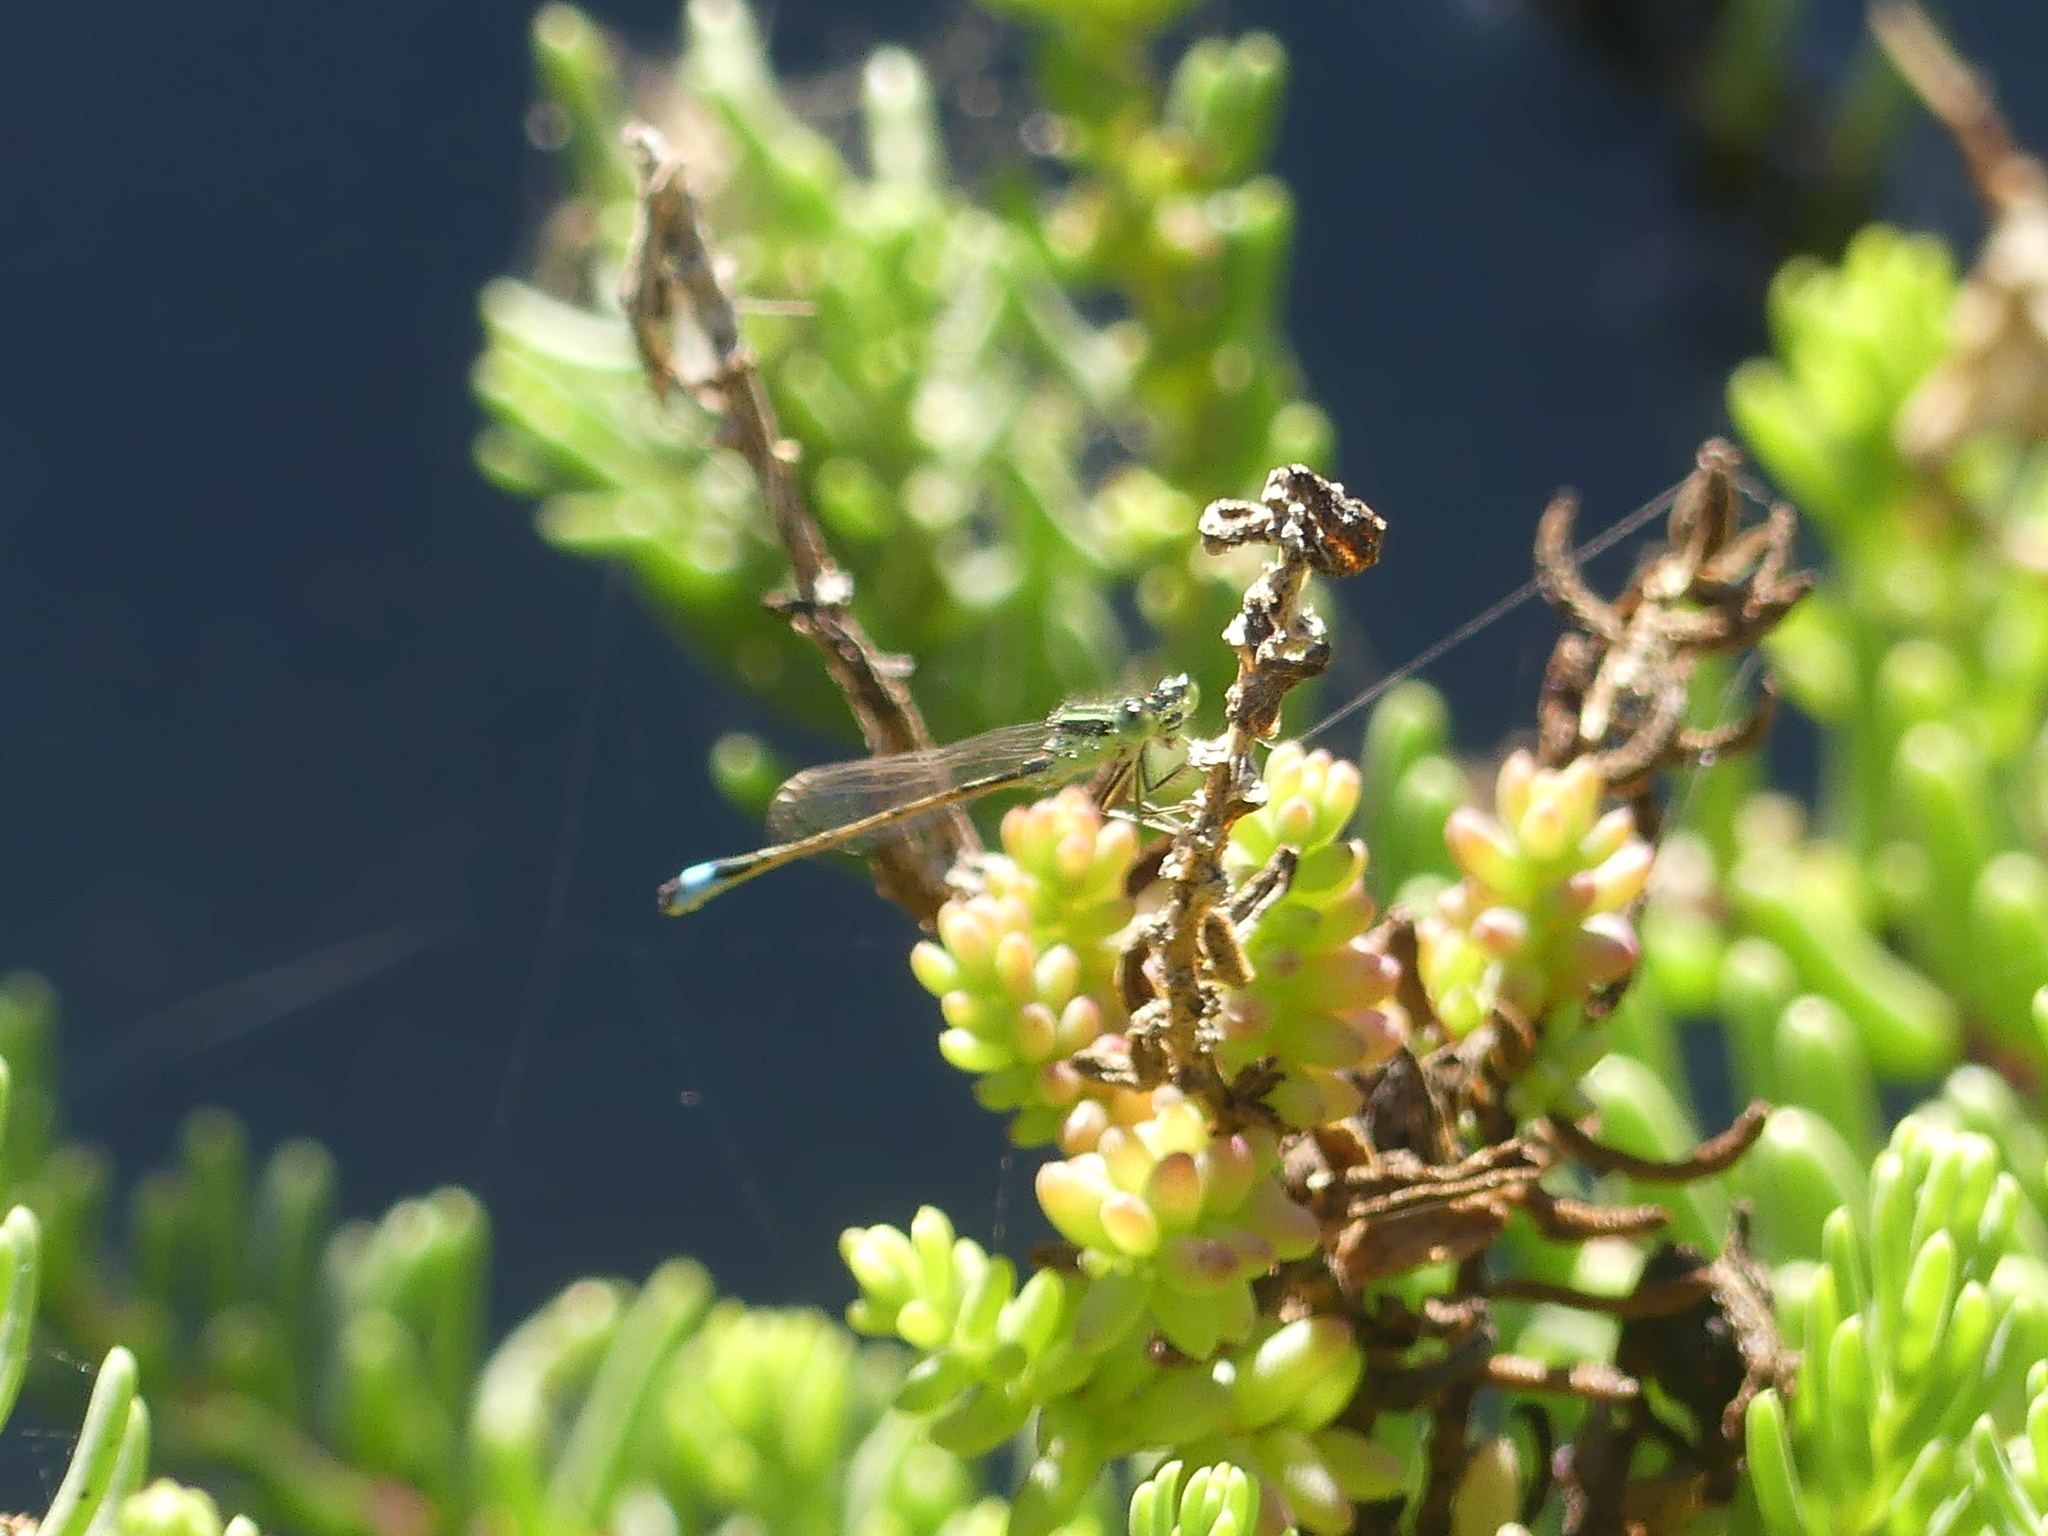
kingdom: Animalia
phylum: Arthropoda
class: Insecta
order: Odonata
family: Coenagrionidae
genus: Ischnura
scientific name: Ischnura saharensis
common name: Sahara bluetail
